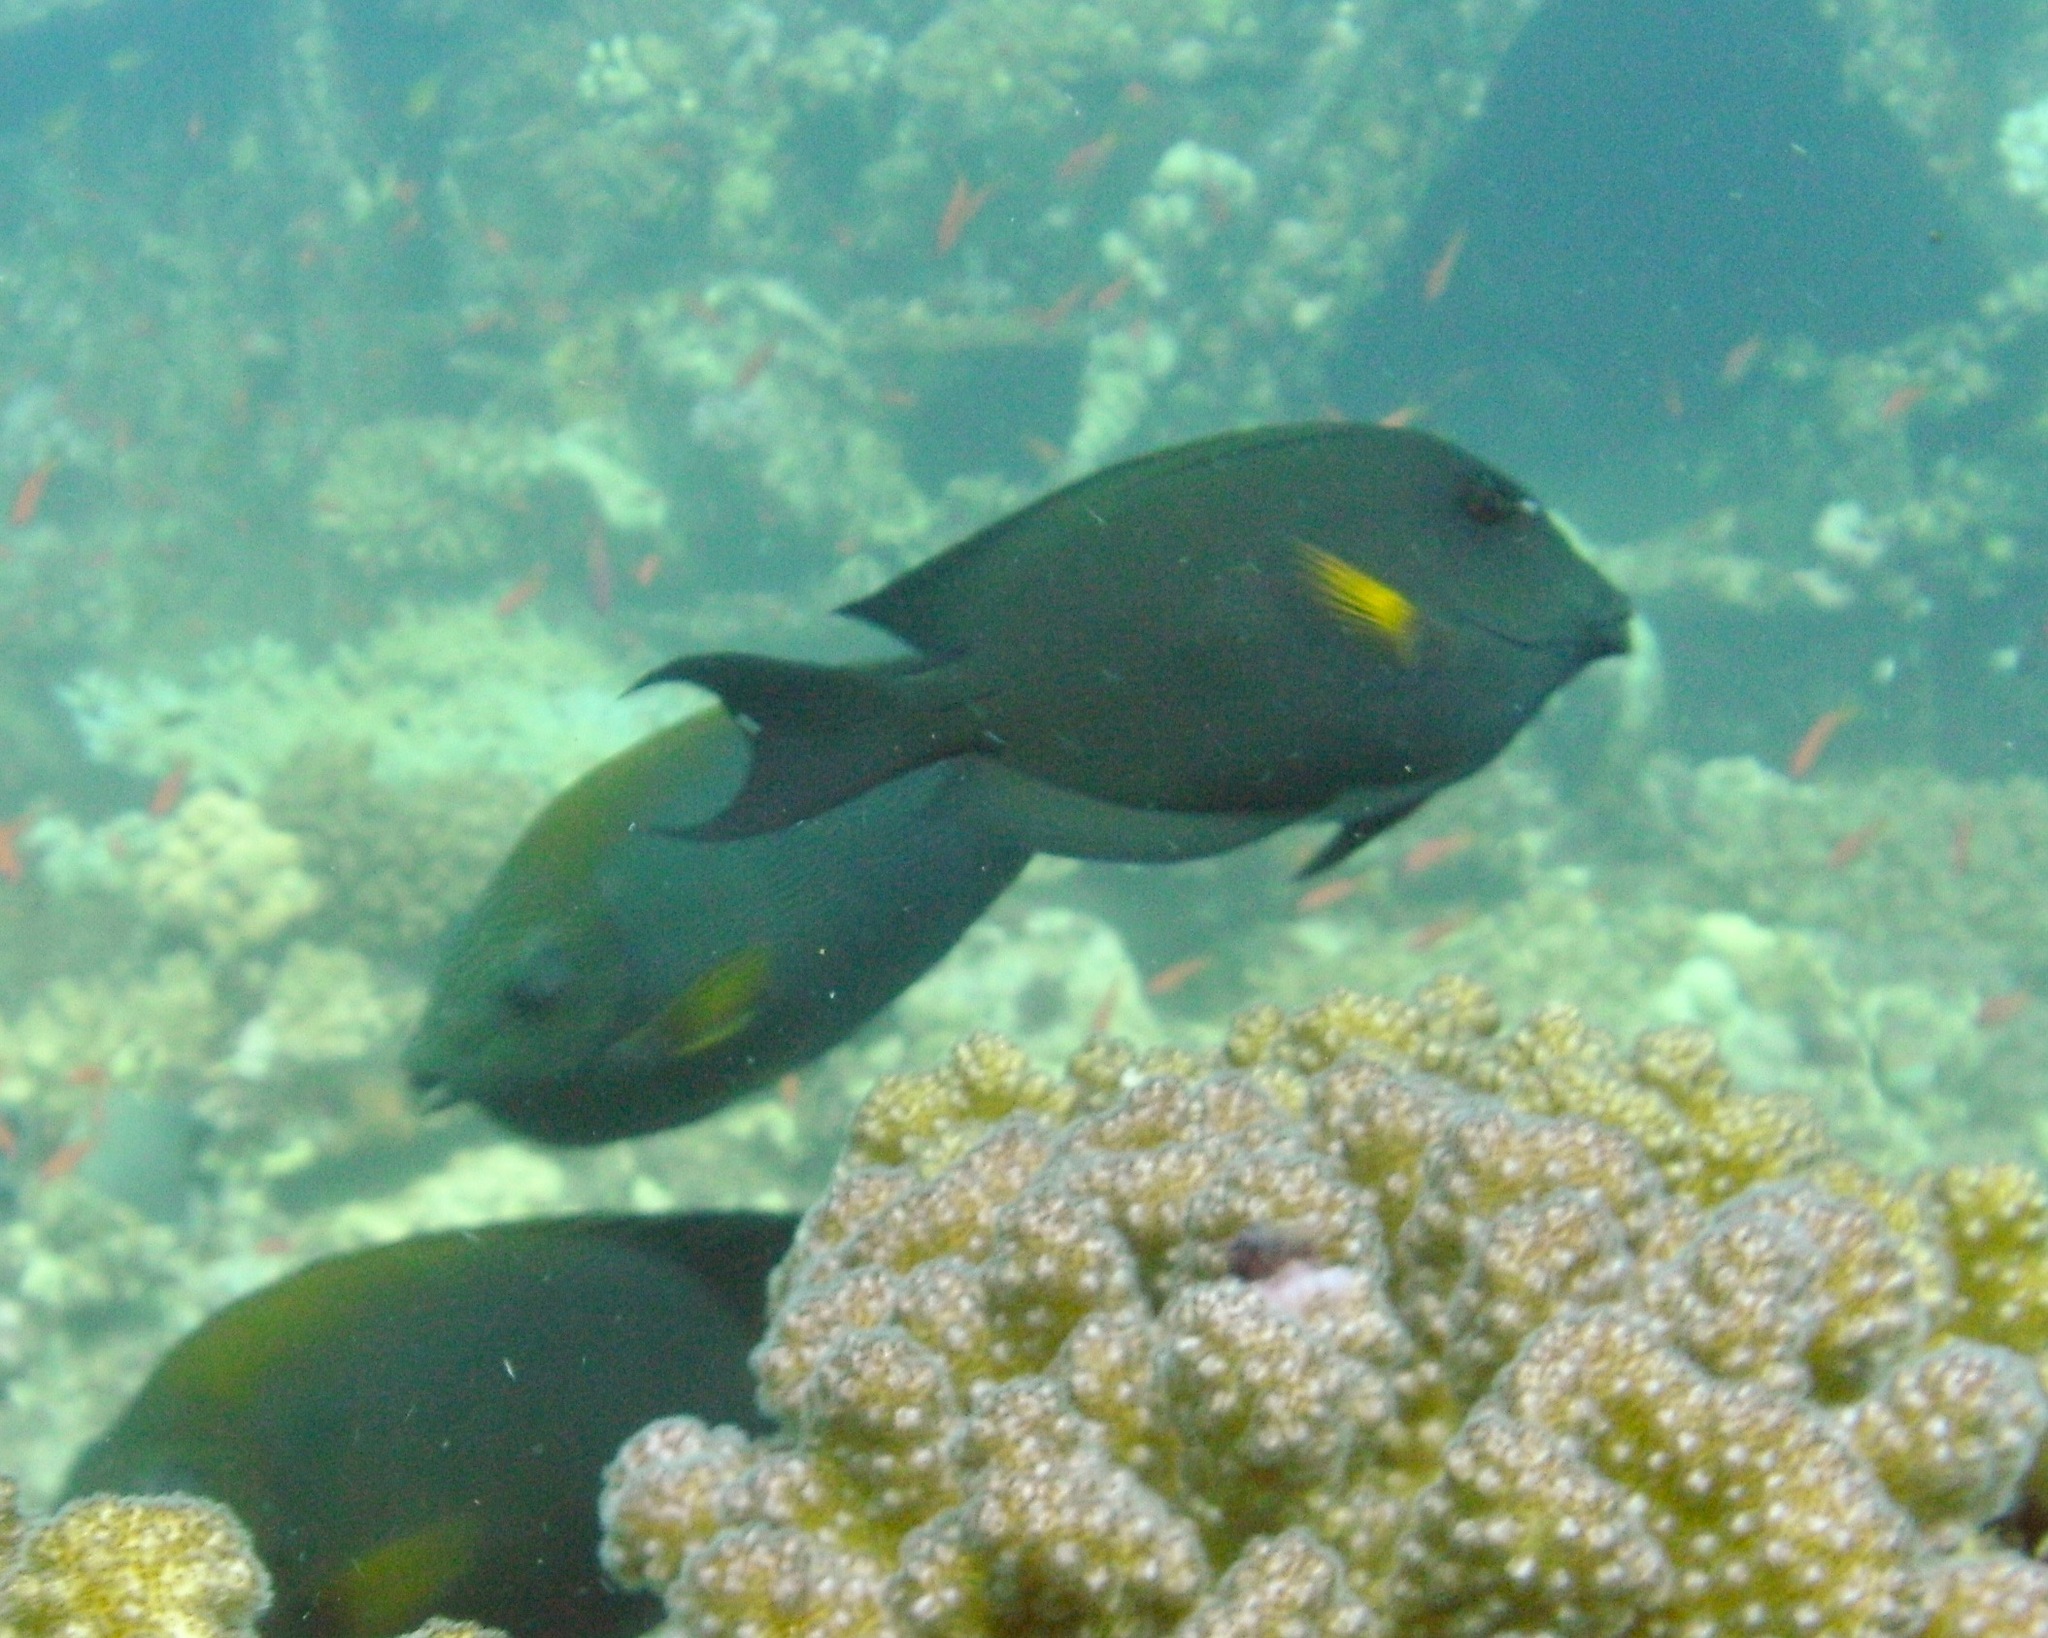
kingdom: Animalia
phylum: Chordata
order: Perciformes
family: Acanthuridae
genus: Ctenochaetus
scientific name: Ctenochaetus striatus
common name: Bristle-toothed surgeonfish
